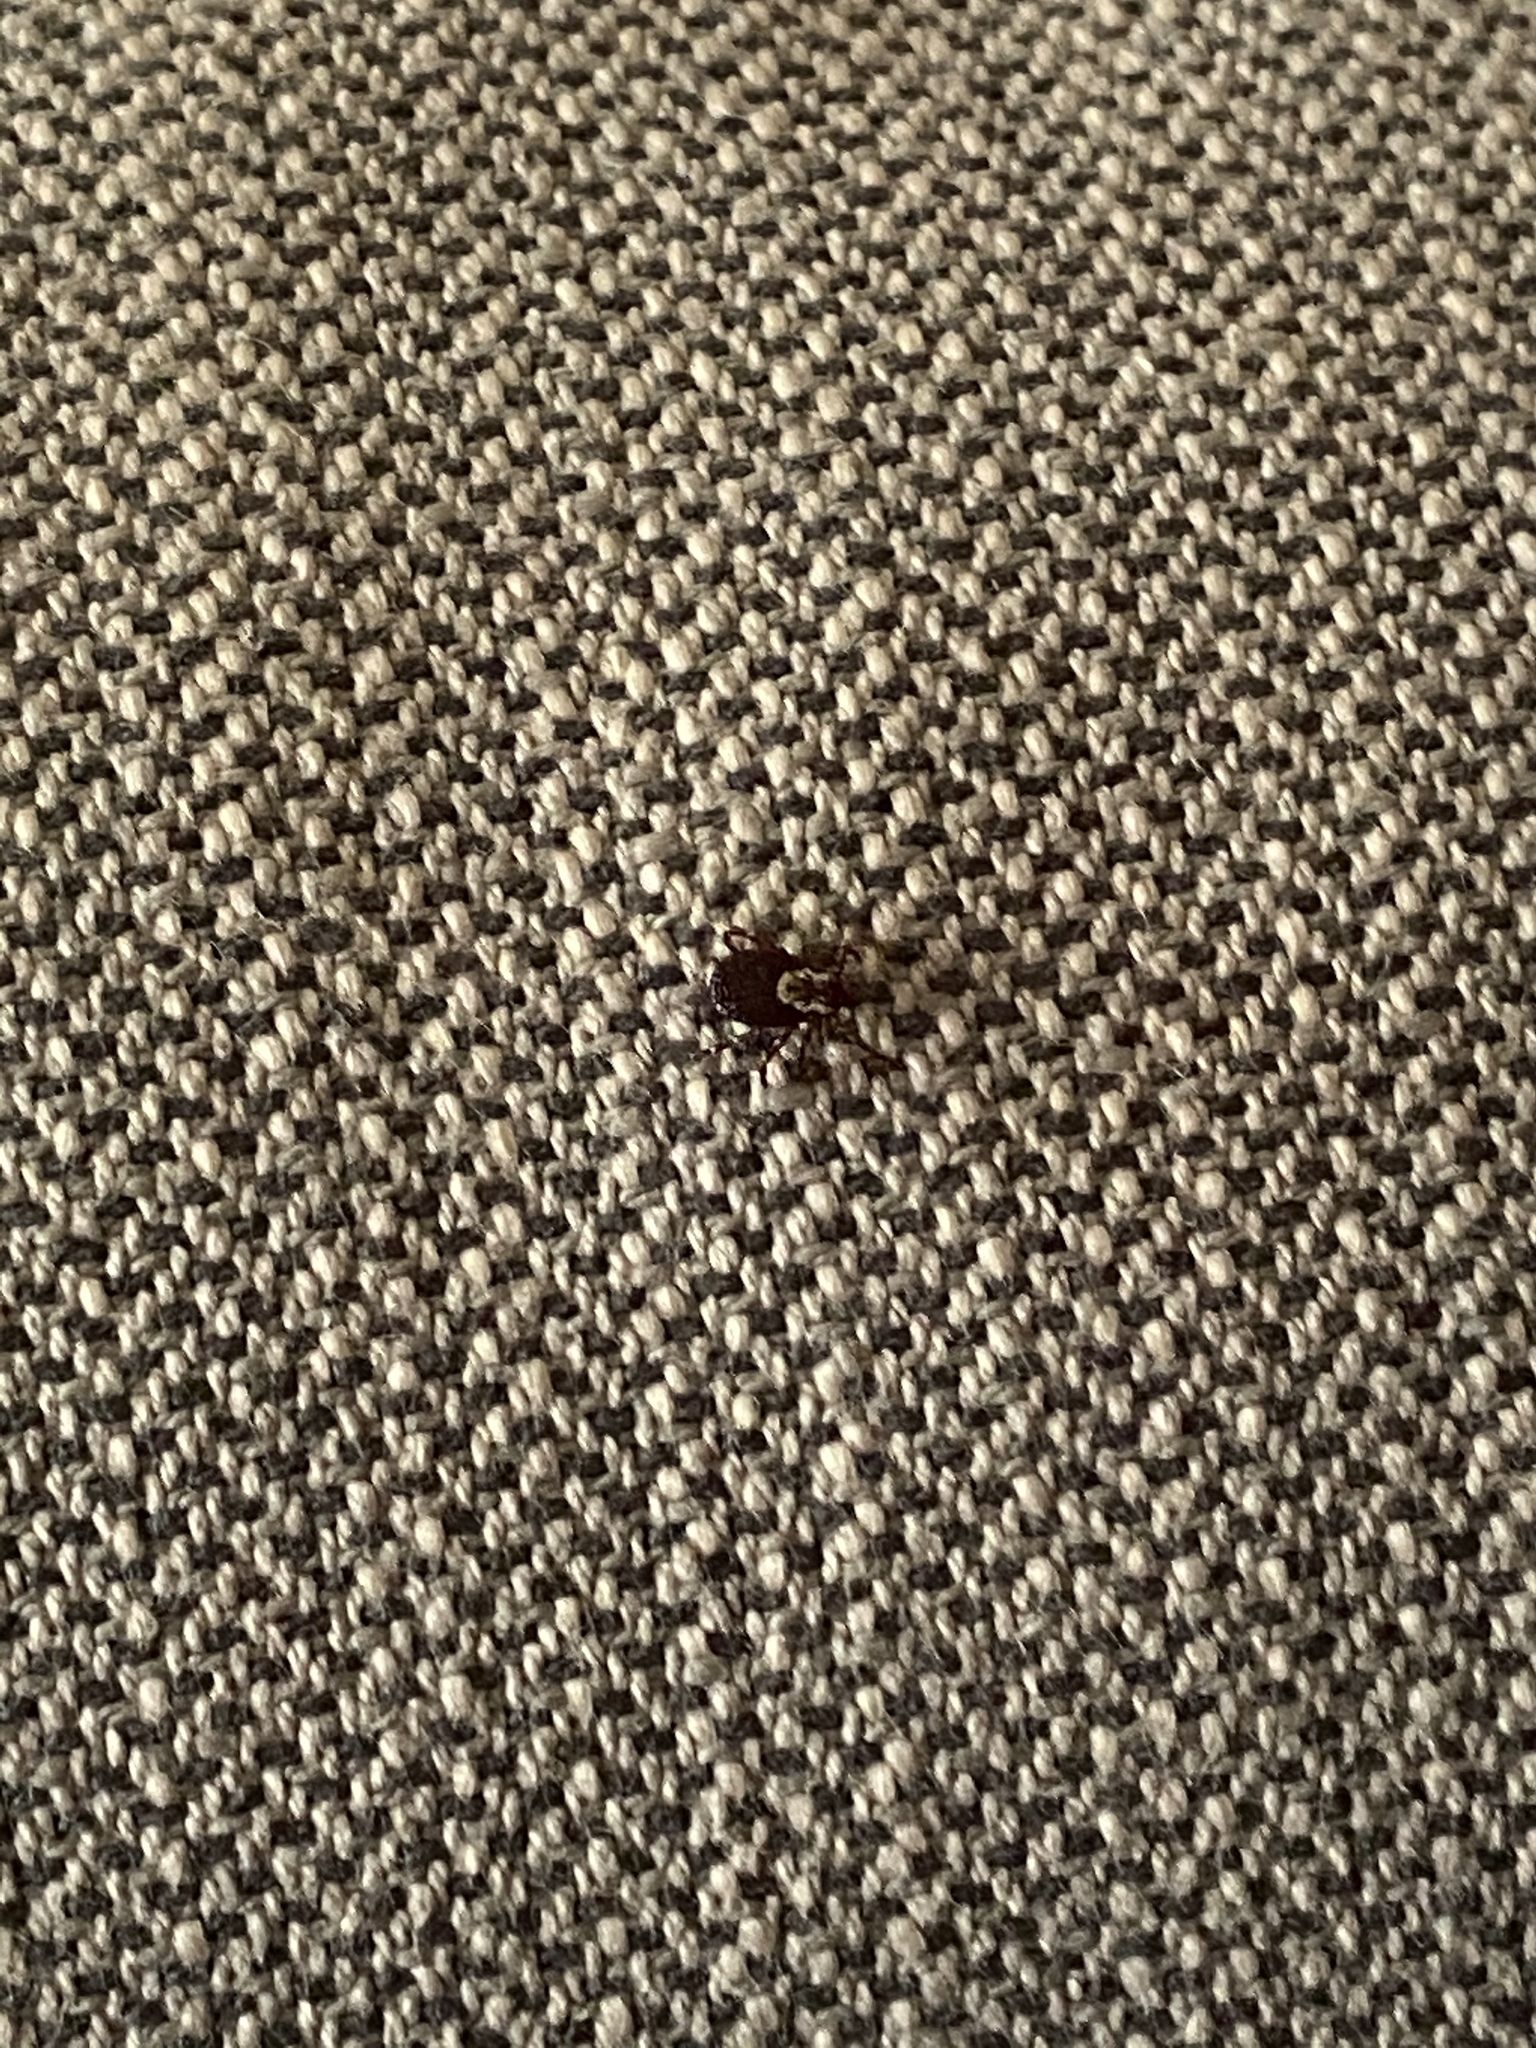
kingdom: Animalia
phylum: Arthropoda
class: Arachnida
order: Ixodida
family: Ixodidae
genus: Dermacentor
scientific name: Dermacentor variabilis
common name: American dog tick
